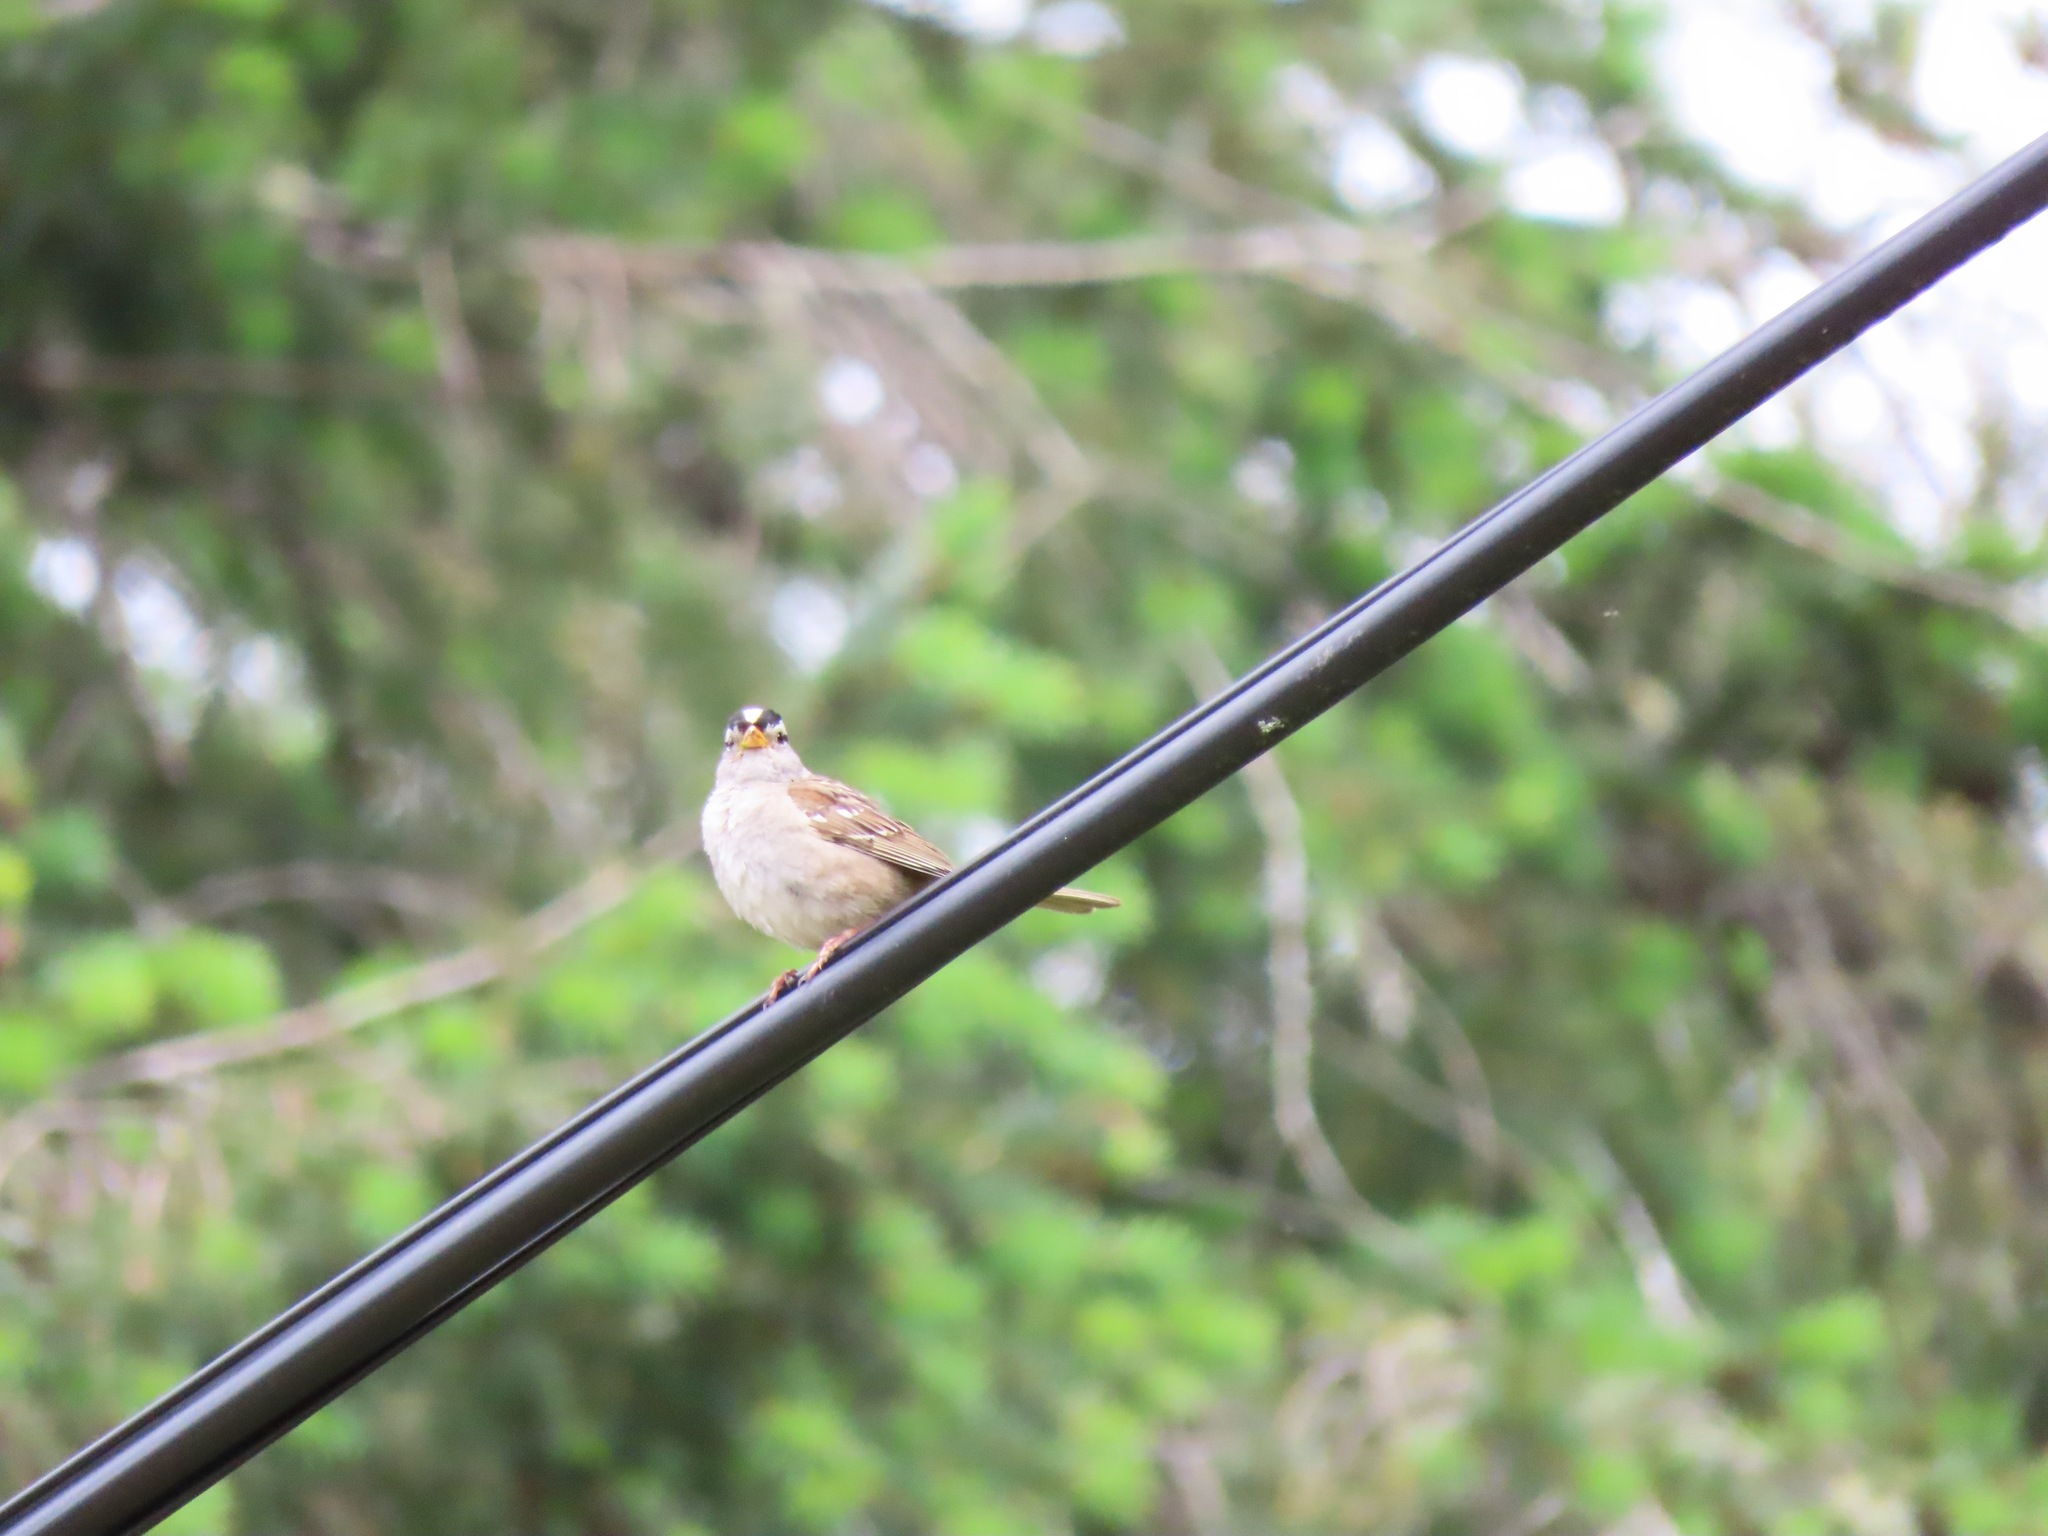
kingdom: Animalia
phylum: Chordata
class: Aves
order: Passeriformes
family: Passerellidae
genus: Zonotrichia
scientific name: Zonotrichia leucophrys
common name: White-crowned sparrow
